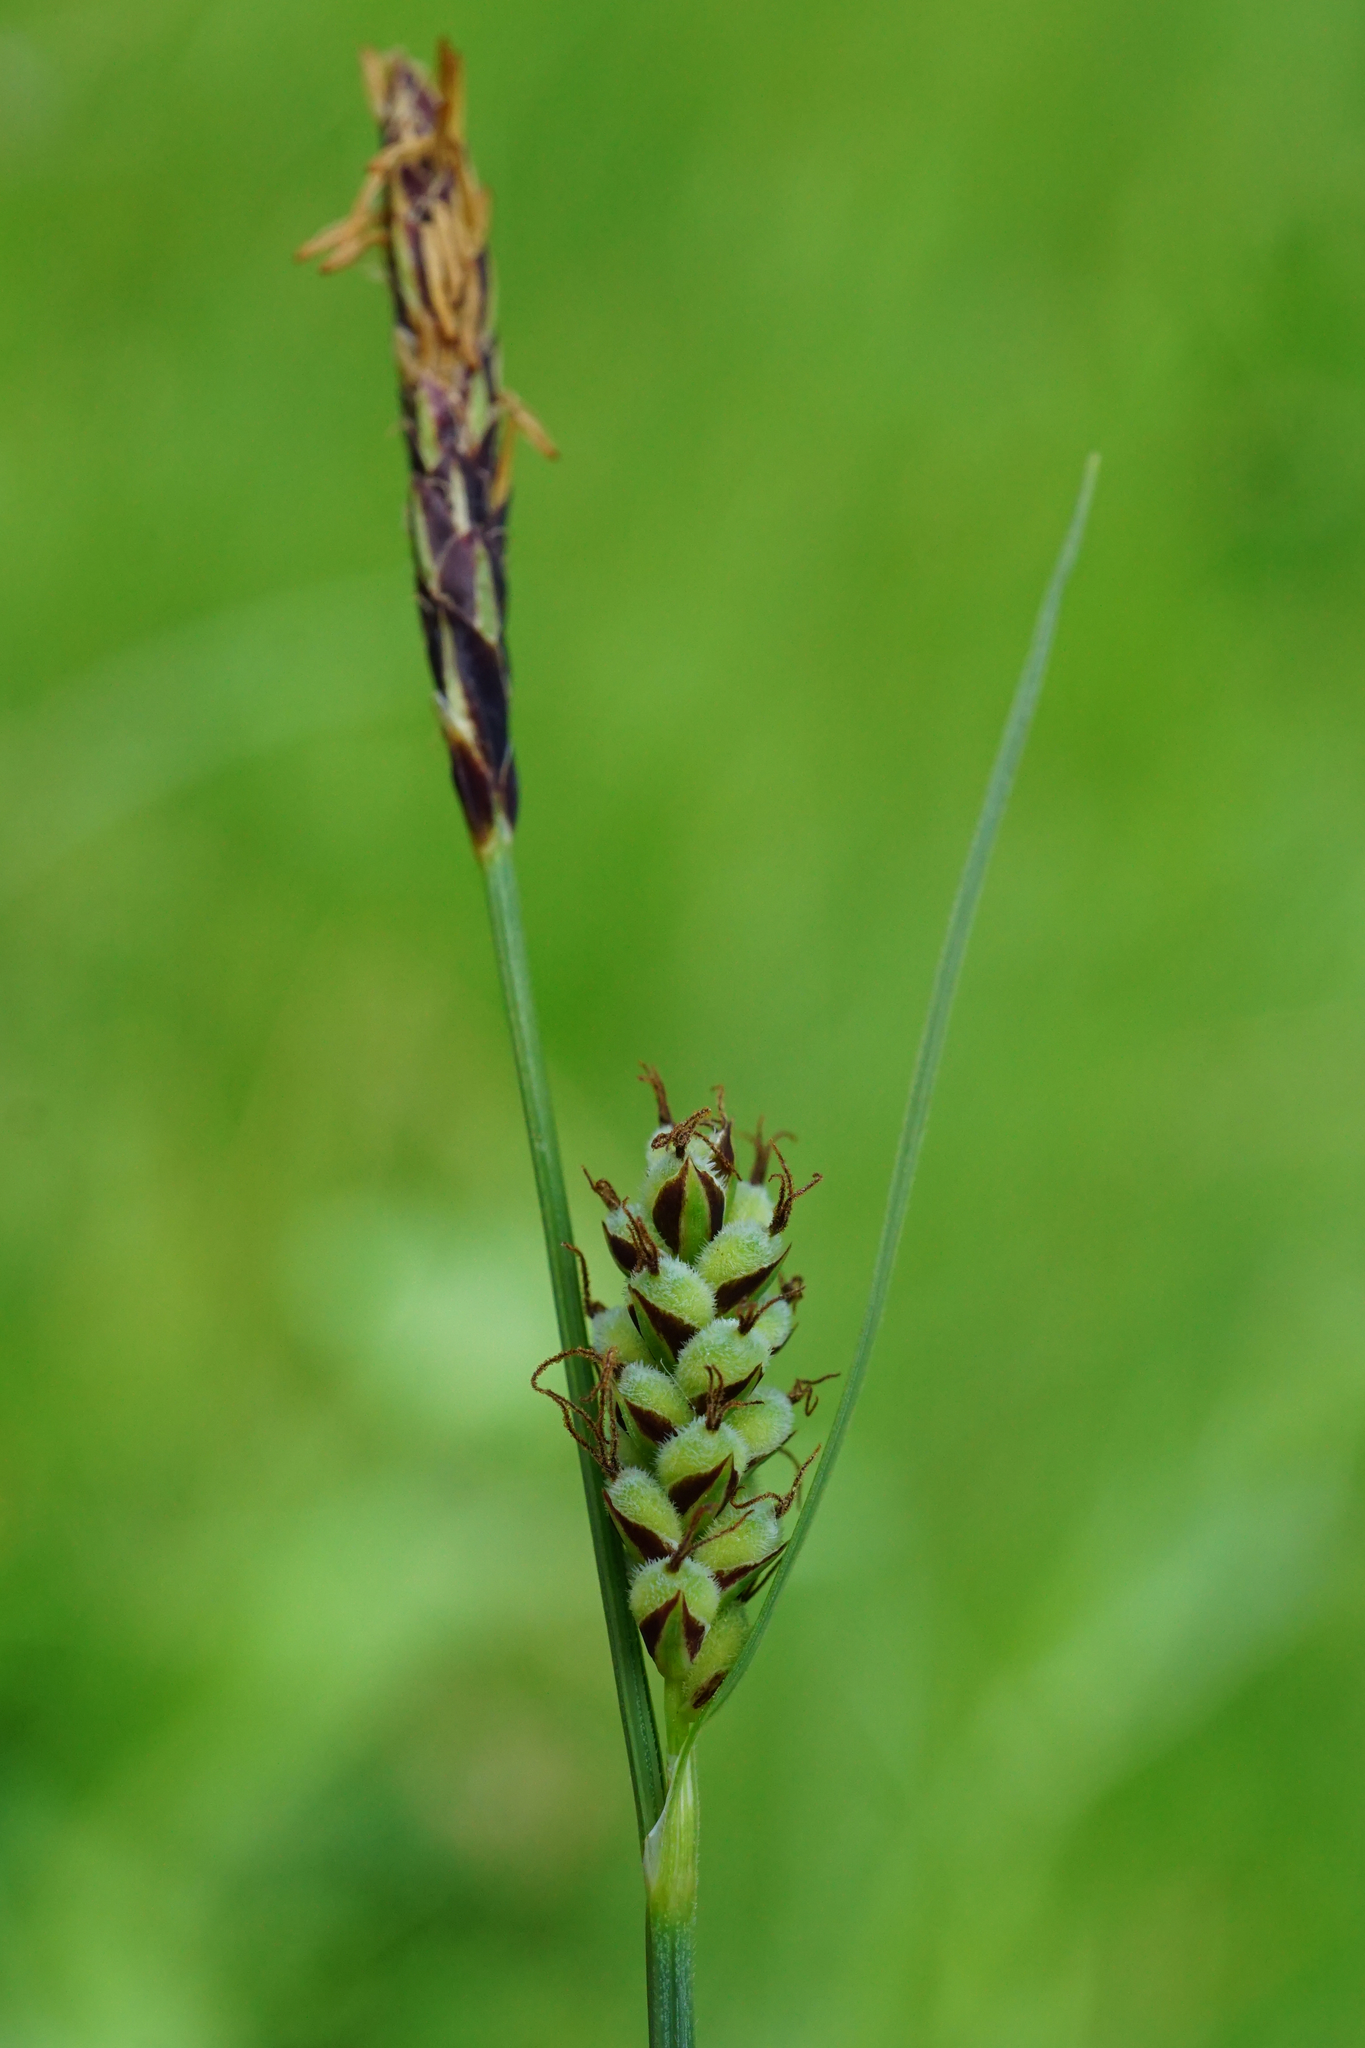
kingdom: Plantae
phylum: Tracheophyta
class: Liliopsida
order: Poales
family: Cyperaceae
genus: Carex
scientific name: Carex tomentosa
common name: Downy-fruited sedge
